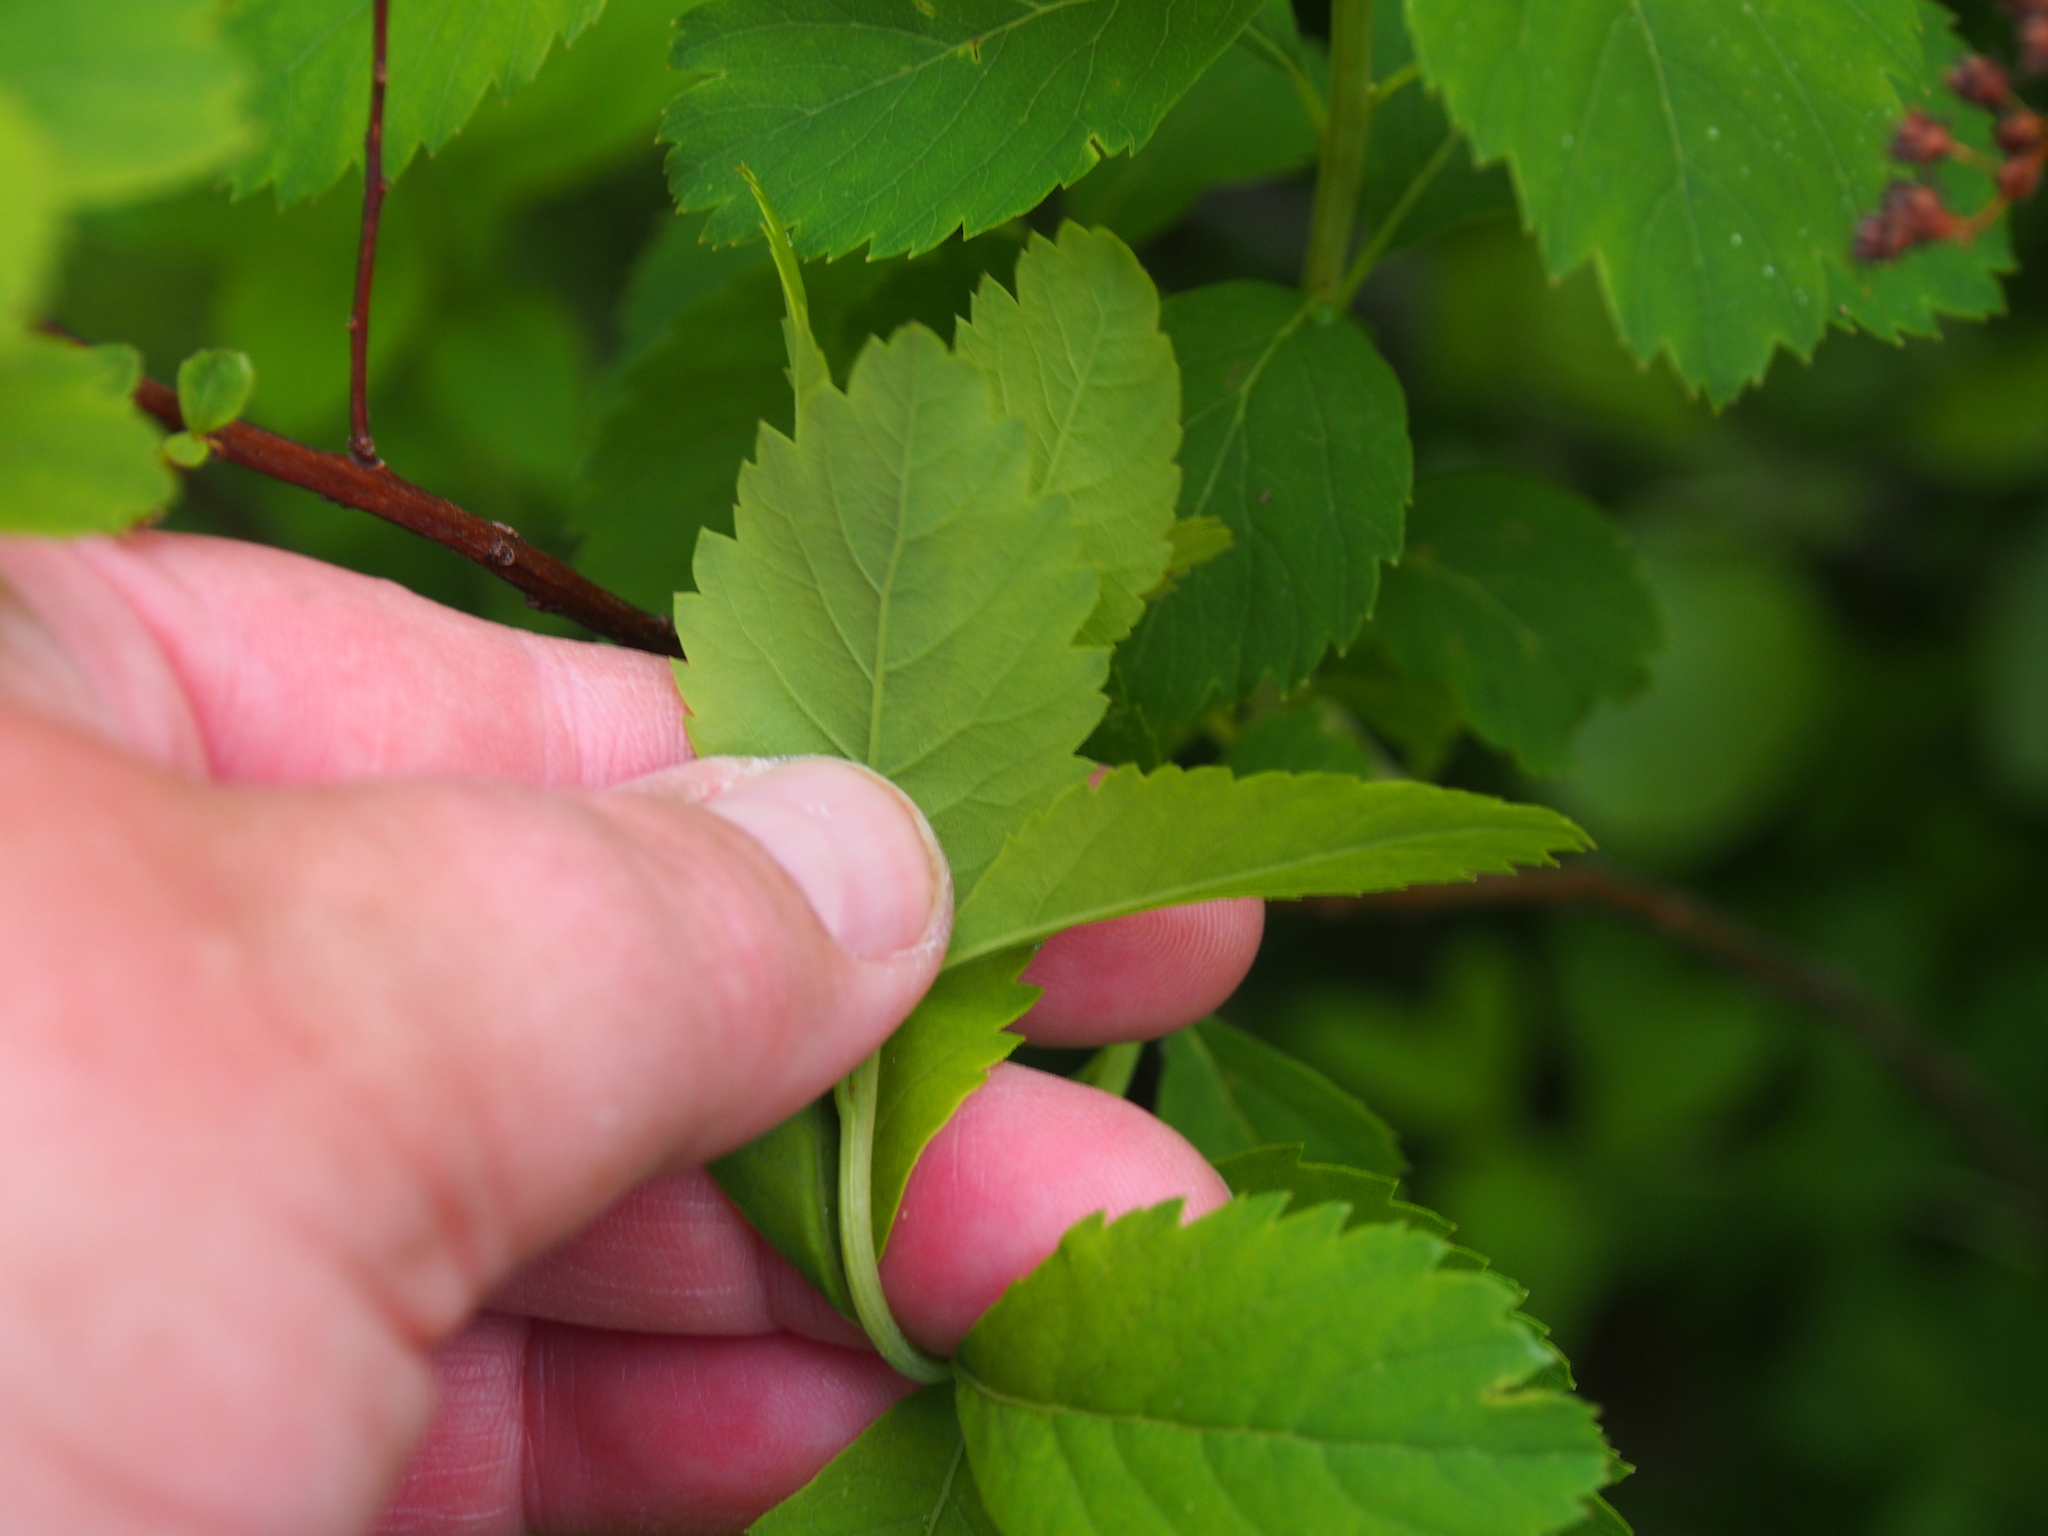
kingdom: Plantae
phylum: Tracheophyta
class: Magnoliopsida
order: Rosales
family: Rosaceae
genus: Spiraea
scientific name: Spiraea alba
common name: Pale bridewort
